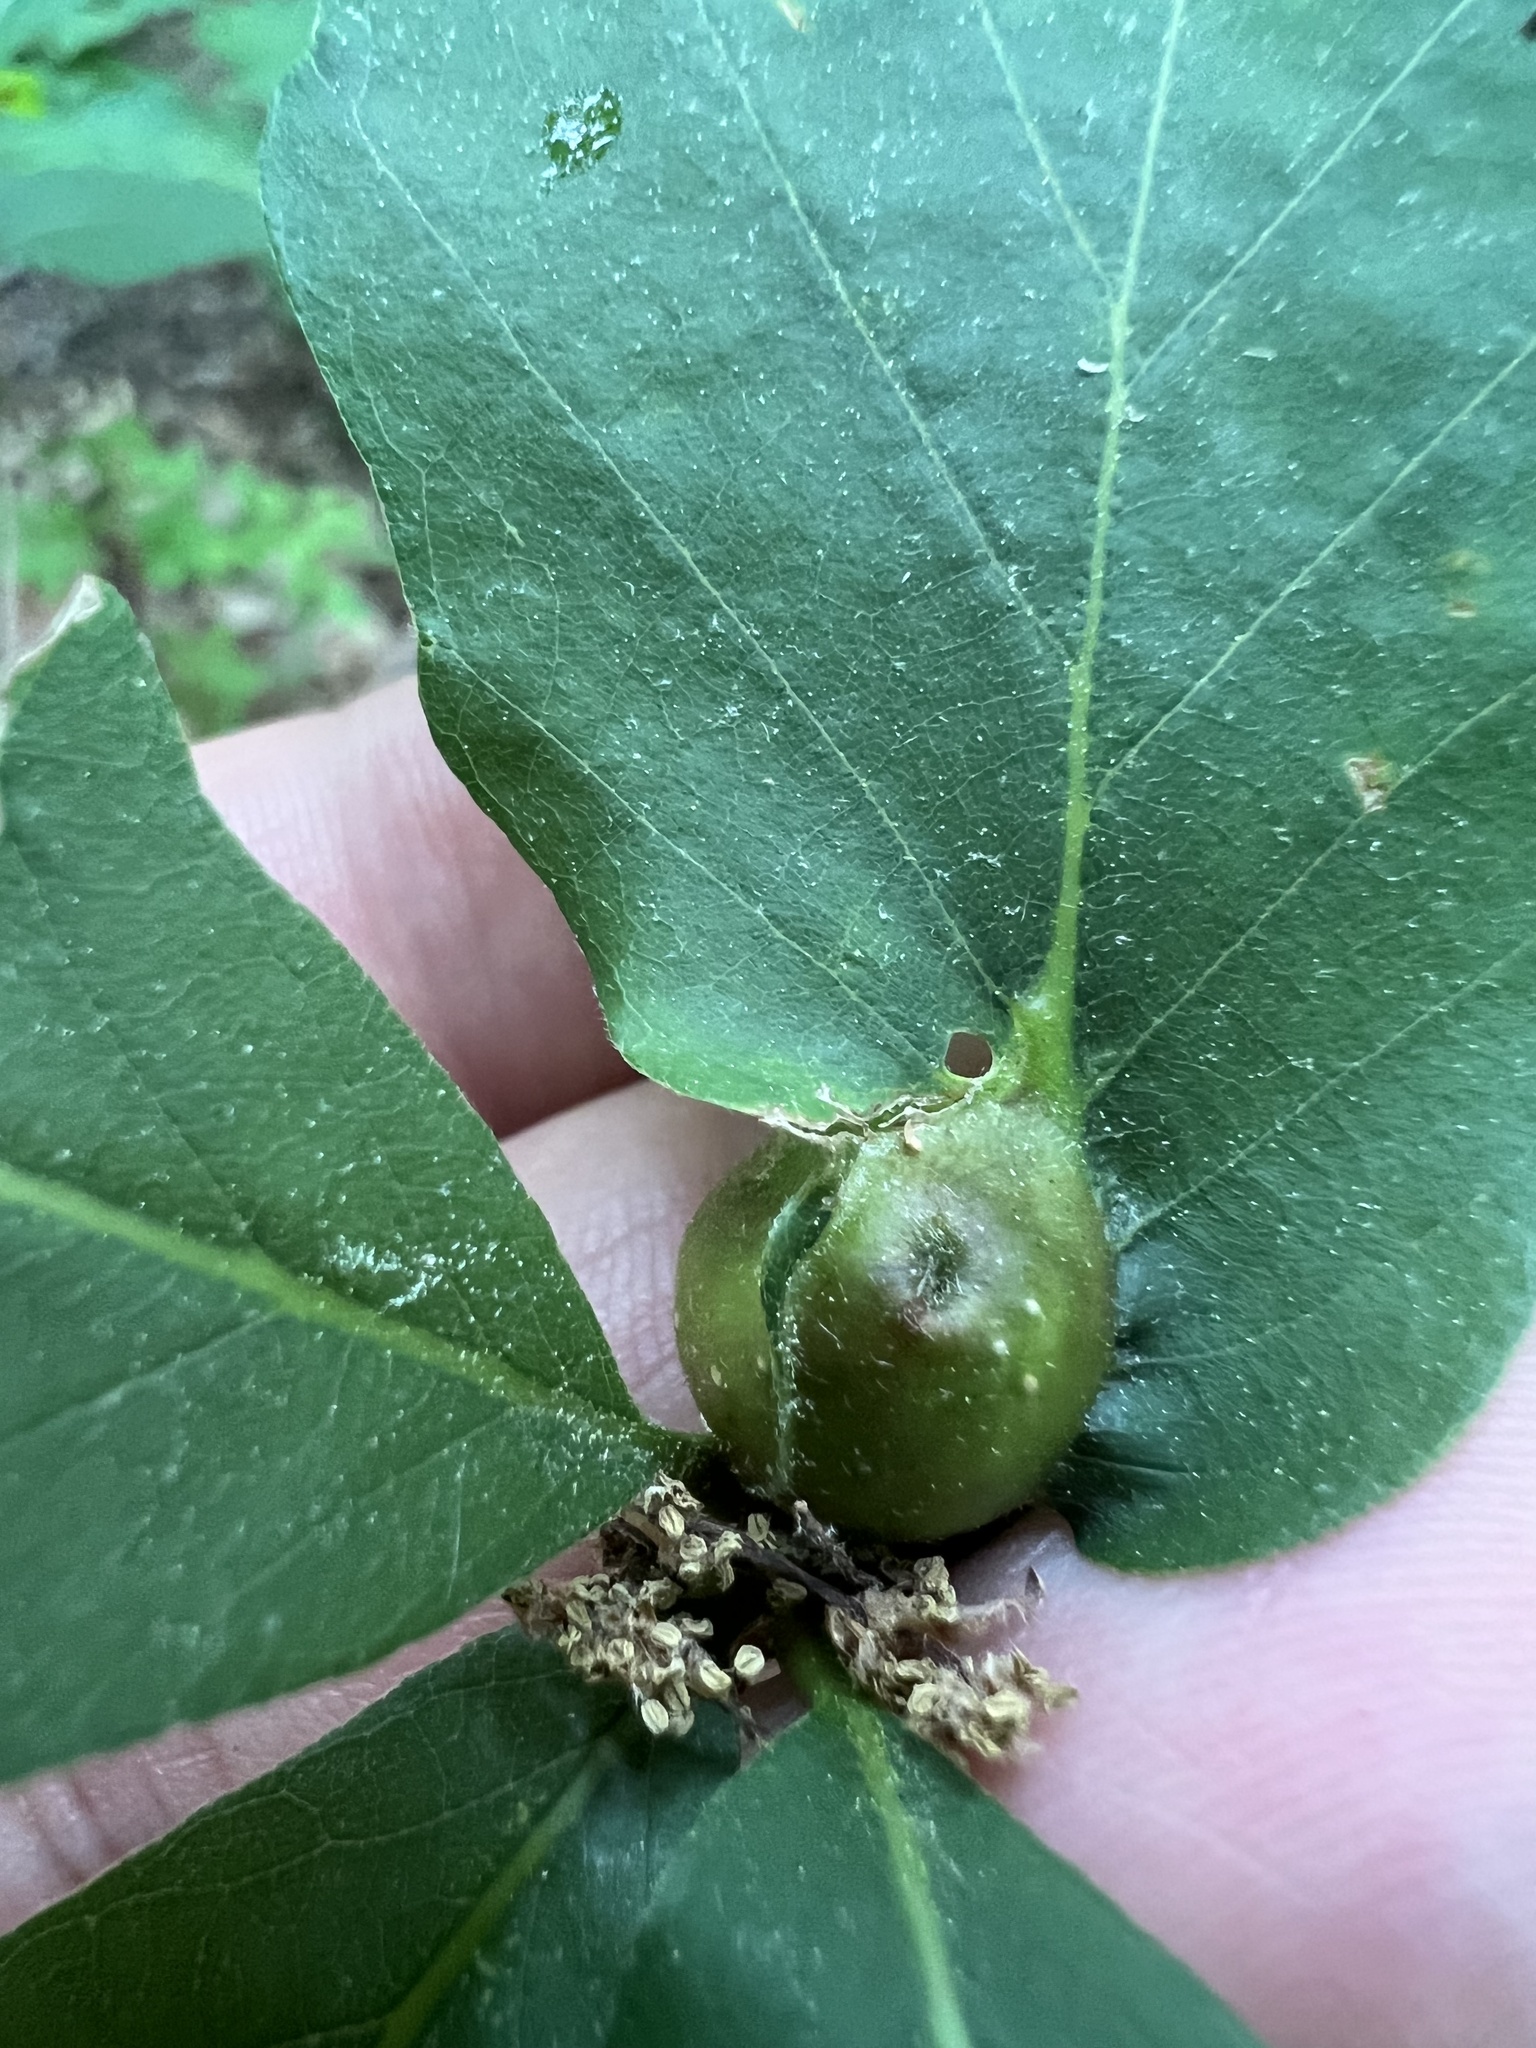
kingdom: Animalia
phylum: Arthropoda
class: Insecta
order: Hymenoptera
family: Cynipidae
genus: Andricus
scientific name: Andricus
